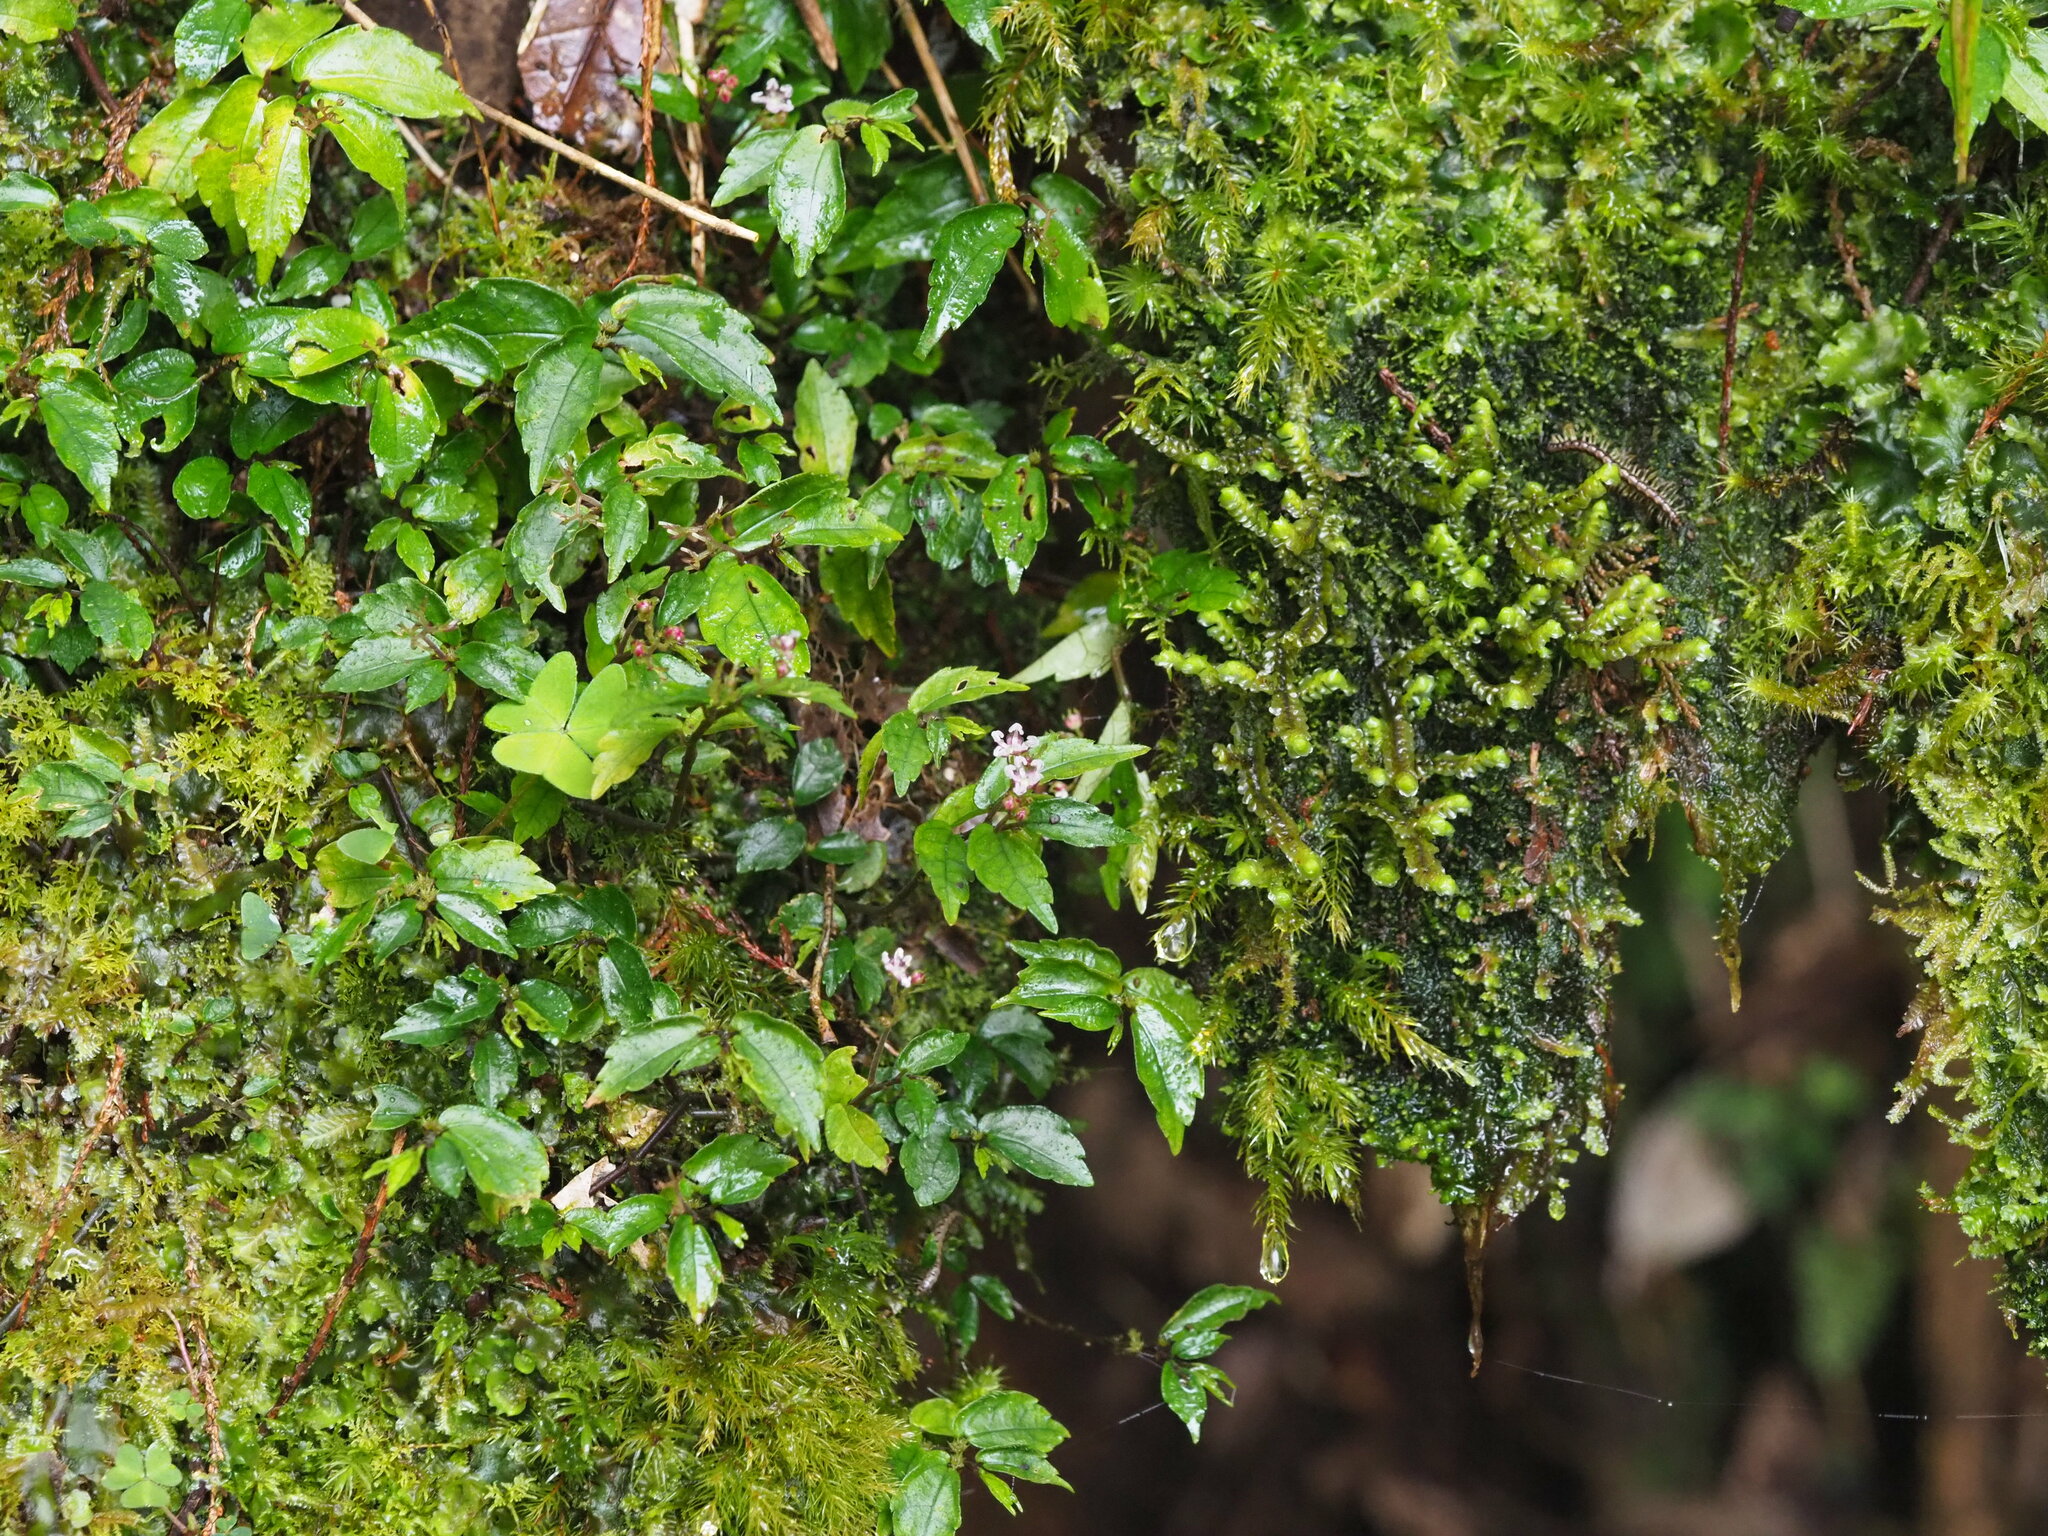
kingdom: Plantae
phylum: Tracheophyta
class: Magnoliopsida
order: Rosales
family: Urticaceae
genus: Elatostema
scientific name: Elatostema radicans
